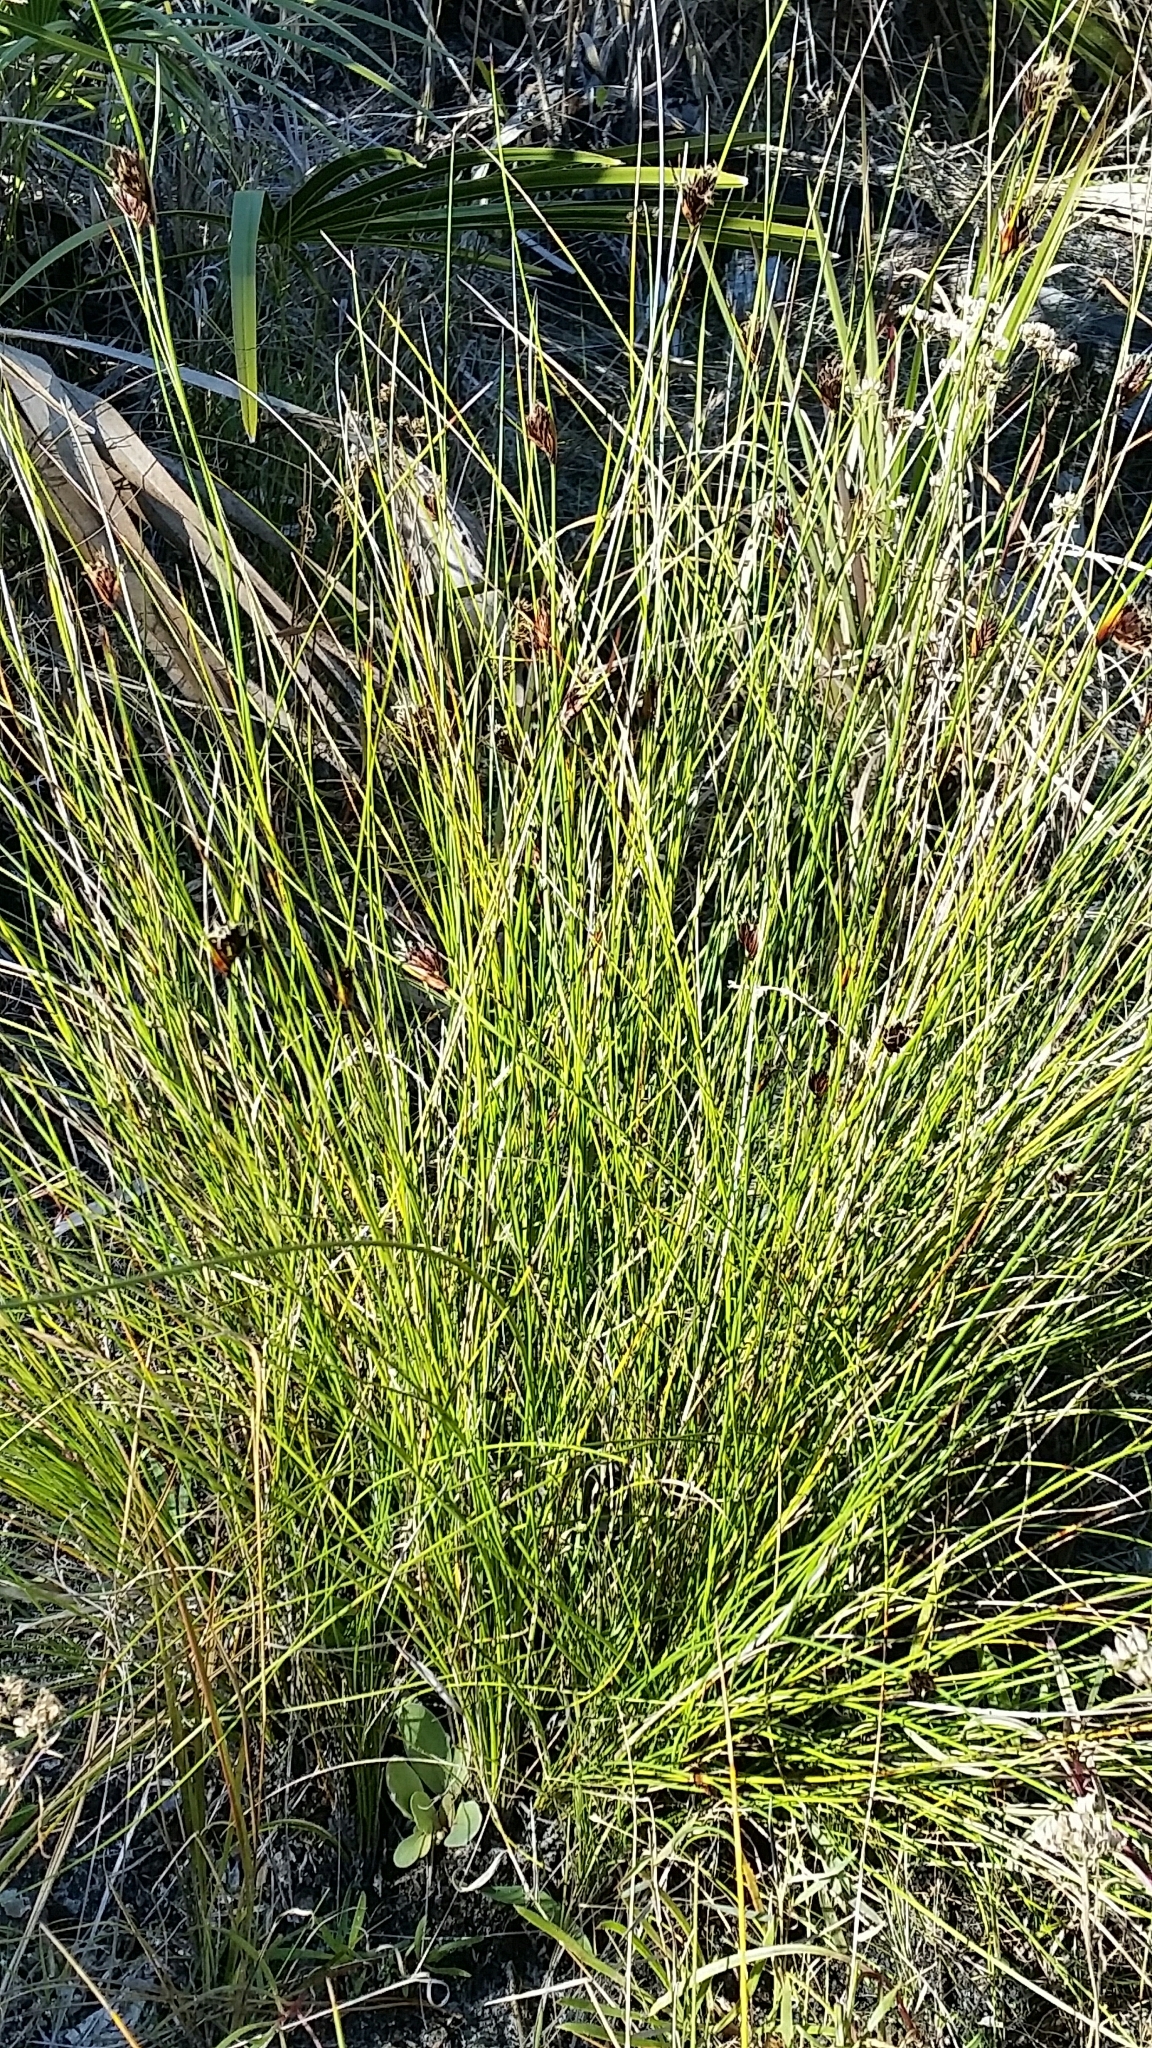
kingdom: Plantae
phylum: Tracheophyta
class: Liliopsida
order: Poales
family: Cyperaceae
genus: Schoenus
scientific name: Schoenus nigricans
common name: Black bog-rush
